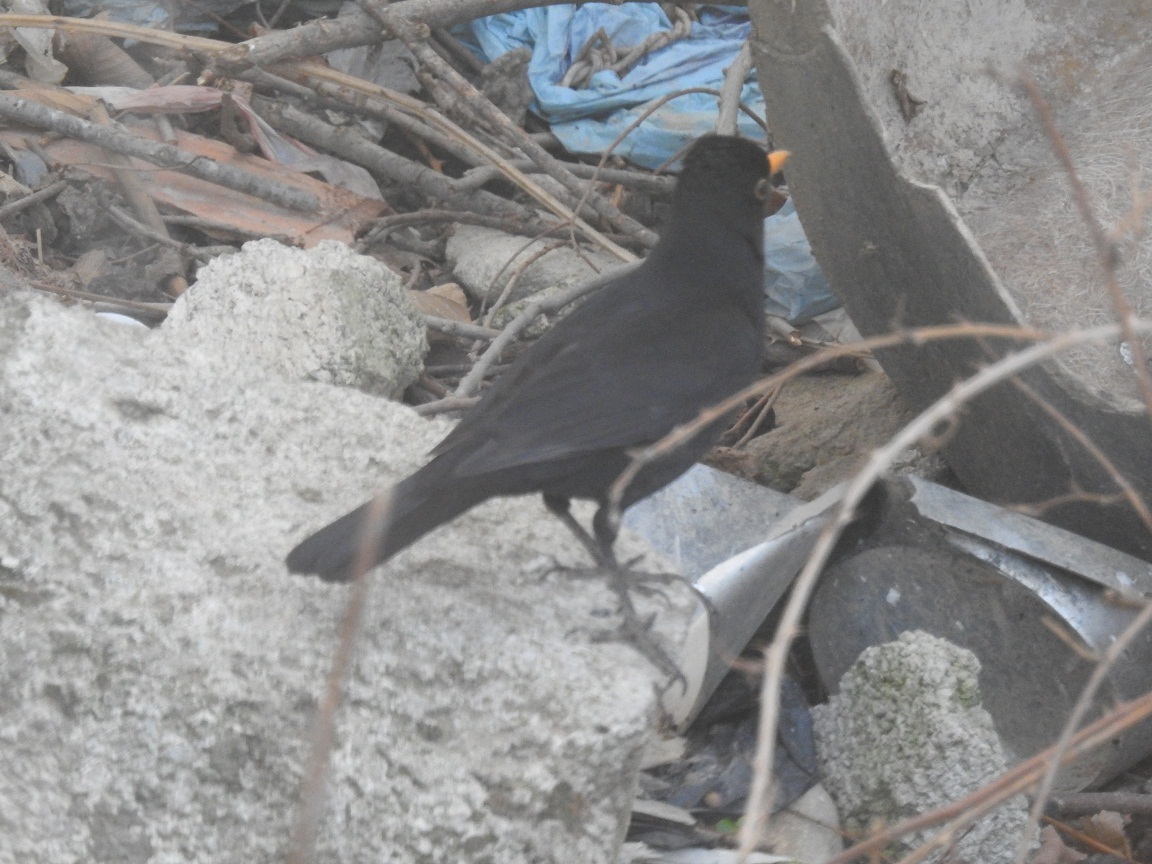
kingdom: Animalia
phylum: Chordata
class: Aves
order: Passeriformes
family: Turdidae
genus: Turdus
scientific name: Turdus merula
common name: Common blackbird
